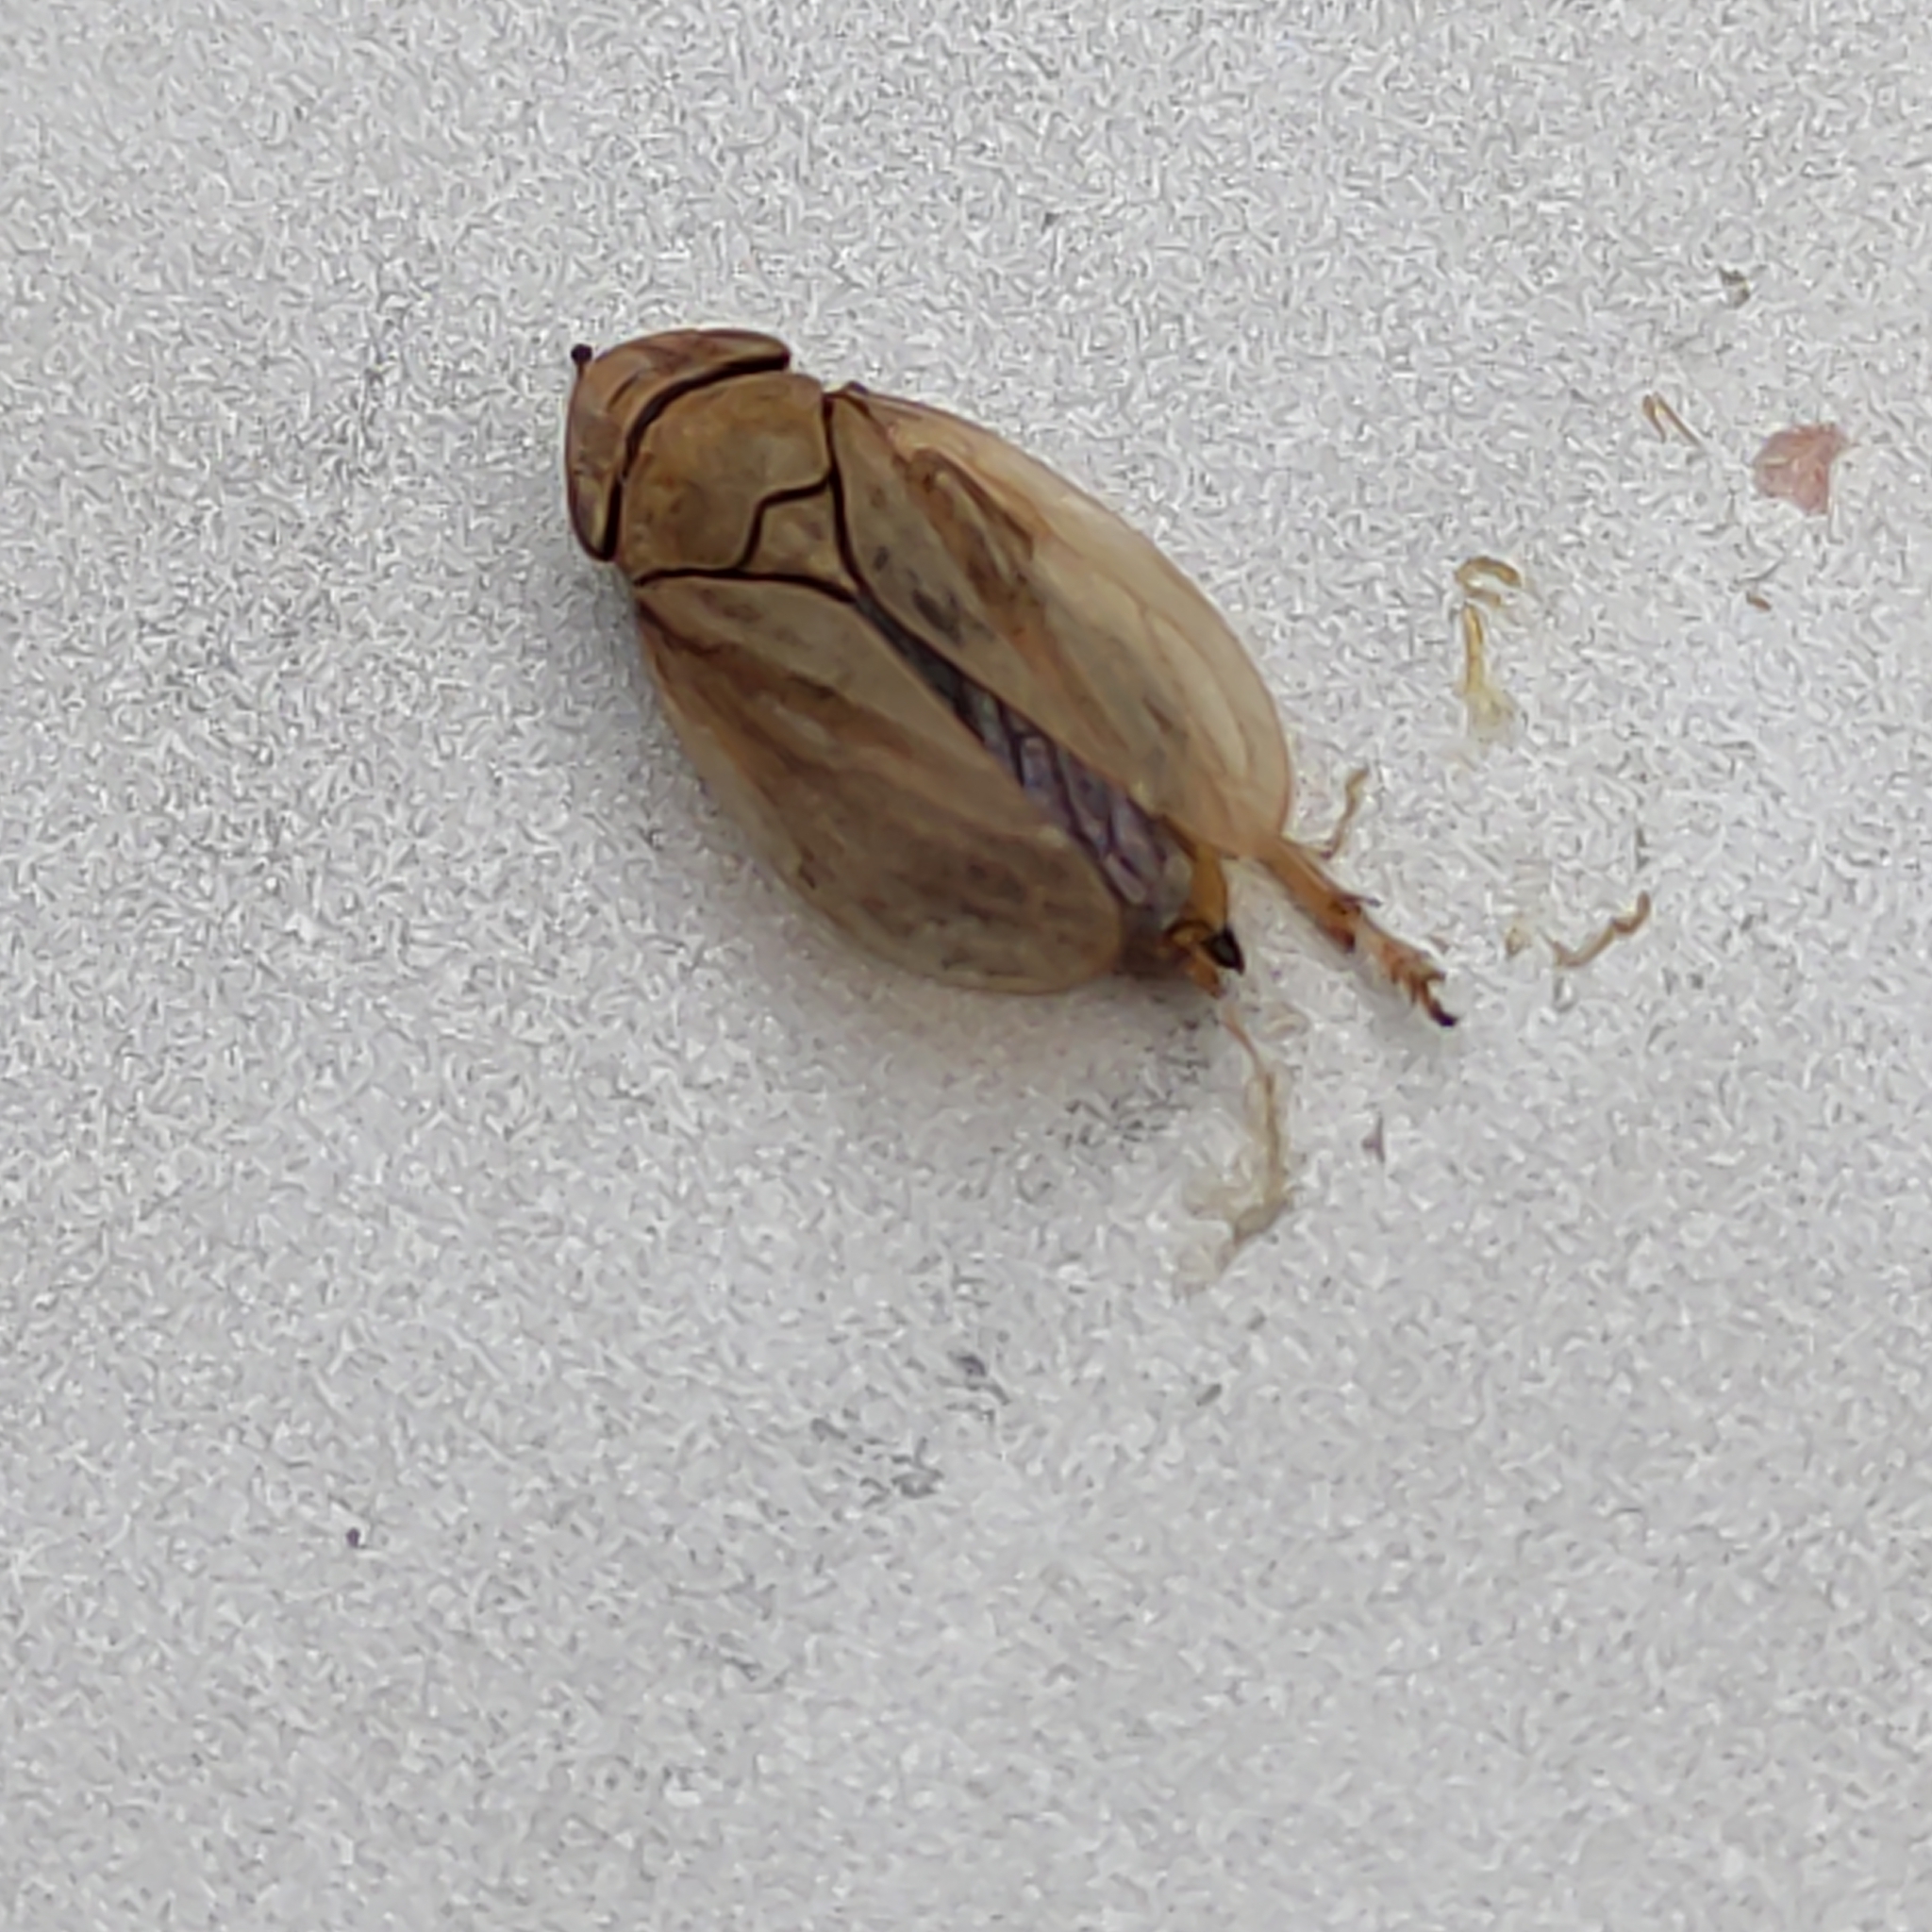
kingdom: Animalia
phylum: Arthropoda
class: Insecta
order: Hemiptera
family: Aphrophoridae
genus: Philaenus
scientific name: Philaenus spumarius
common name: Meadow spittlebug
